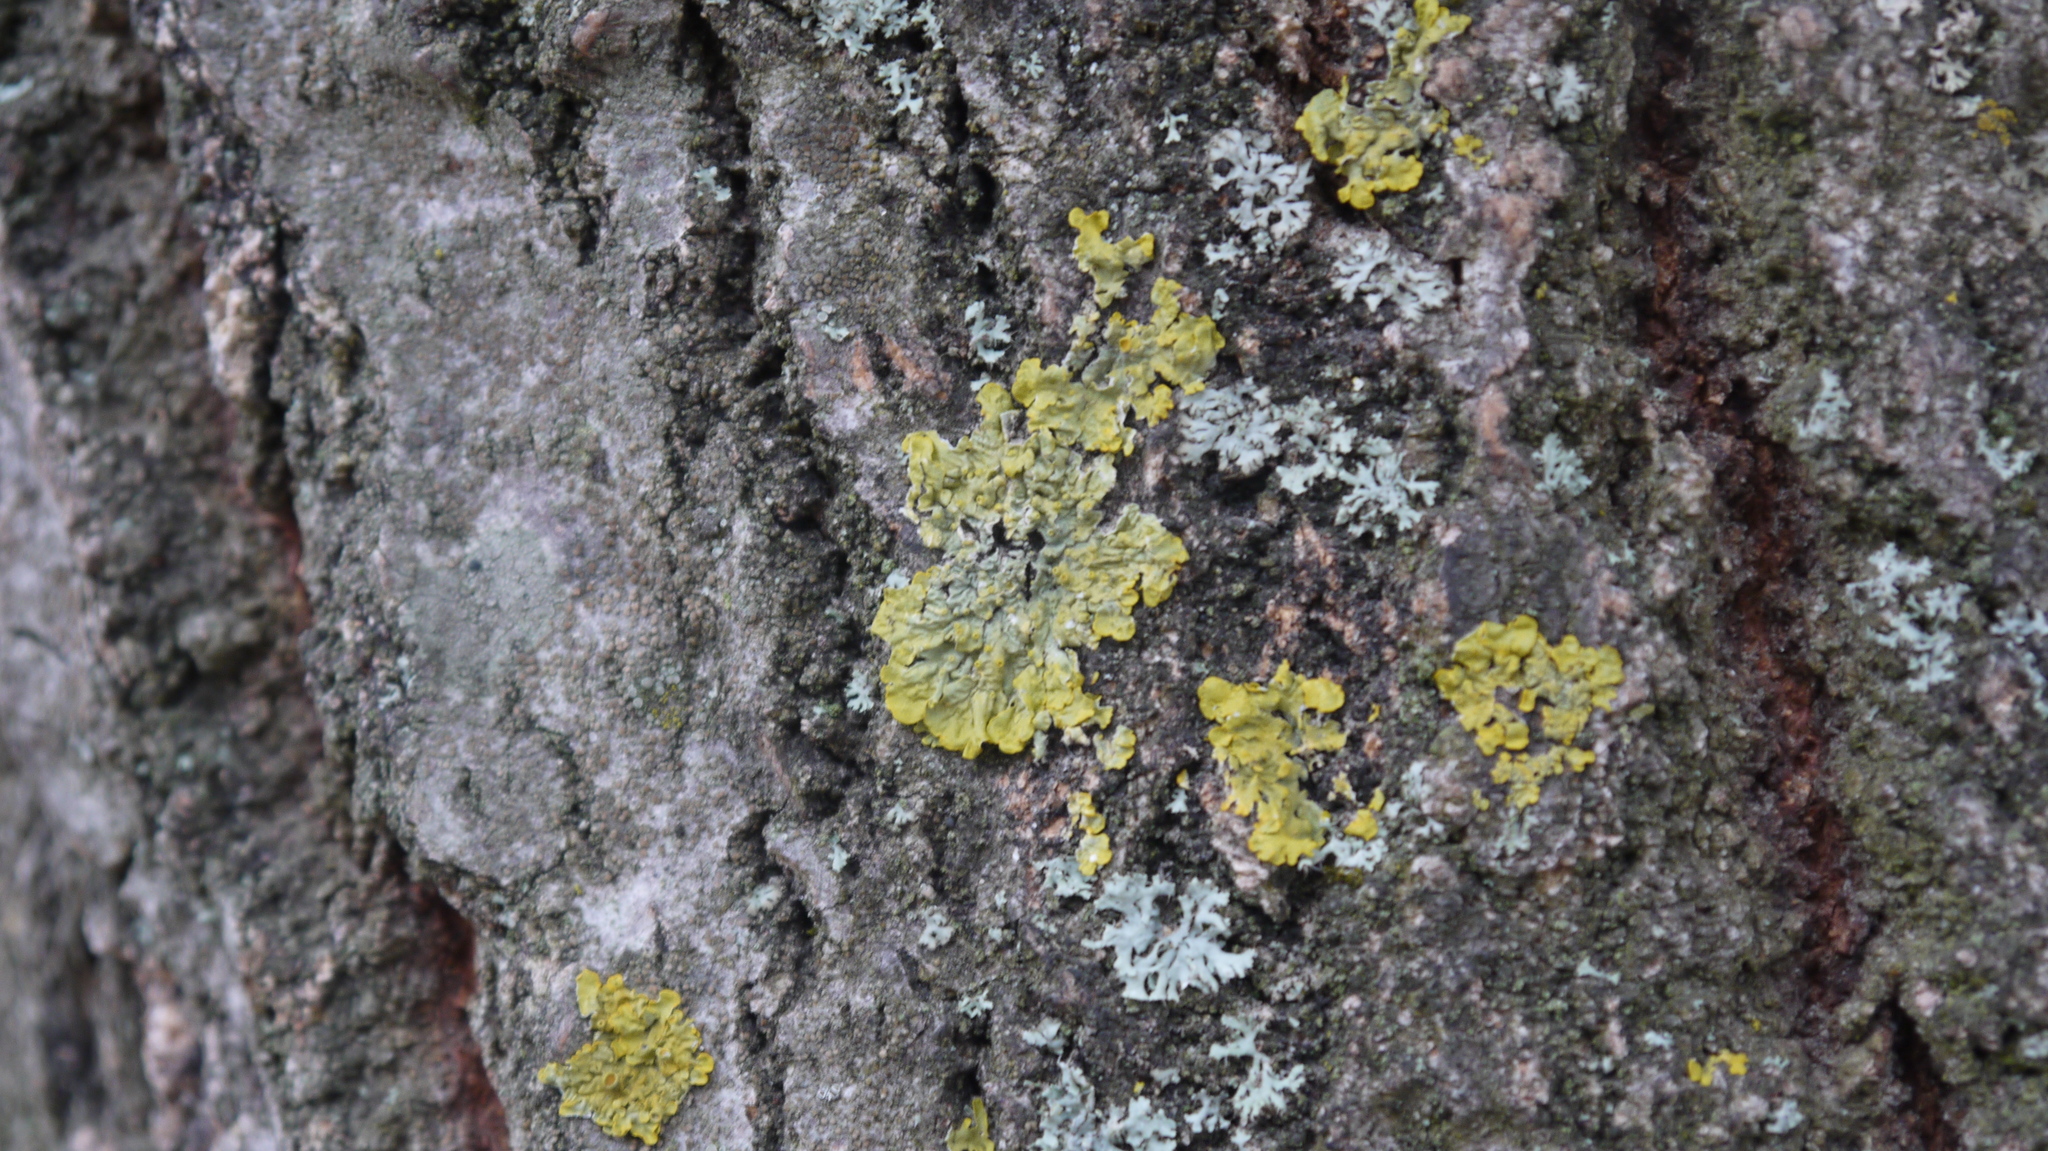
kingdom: Fungi
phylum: Ascomycota
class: Lecanoromycetes
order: Teloschistales
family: Teloschistaceae
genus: Xanthoria
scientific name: Xanthoria parietina
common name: Common orange lichen
